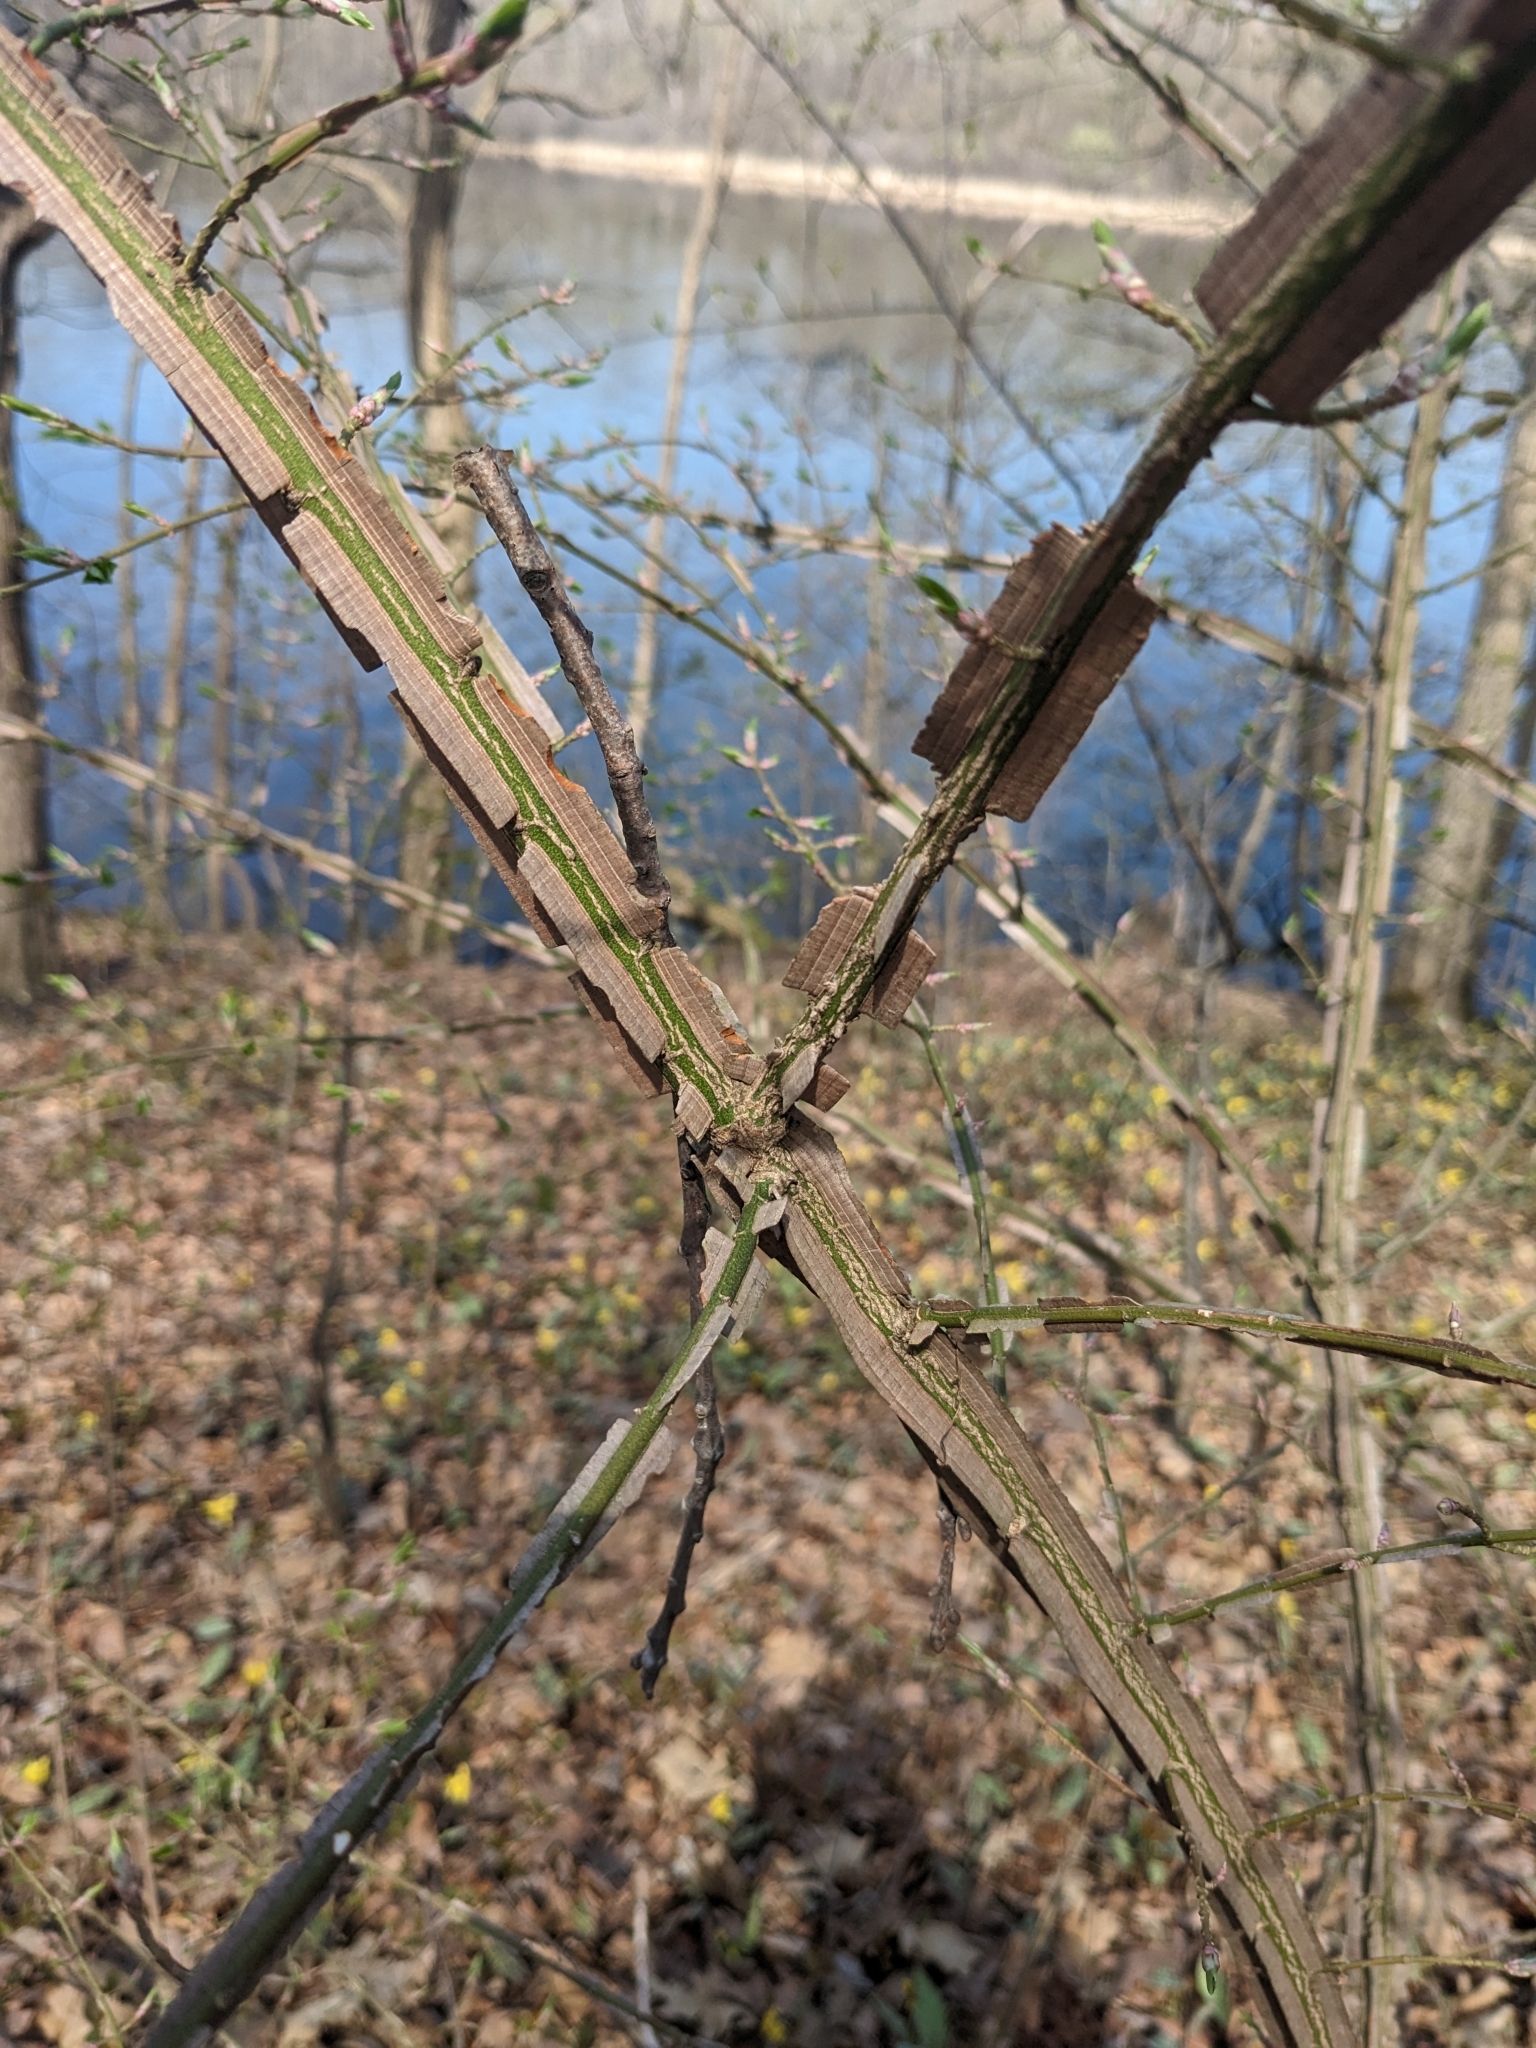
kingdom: Plantae
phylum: Tracheophyta
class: Magnoliopsida
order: Celastrales
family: Celastraceae
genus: Euonymus
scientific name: Euonymus alatus
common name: Winged euonymus
